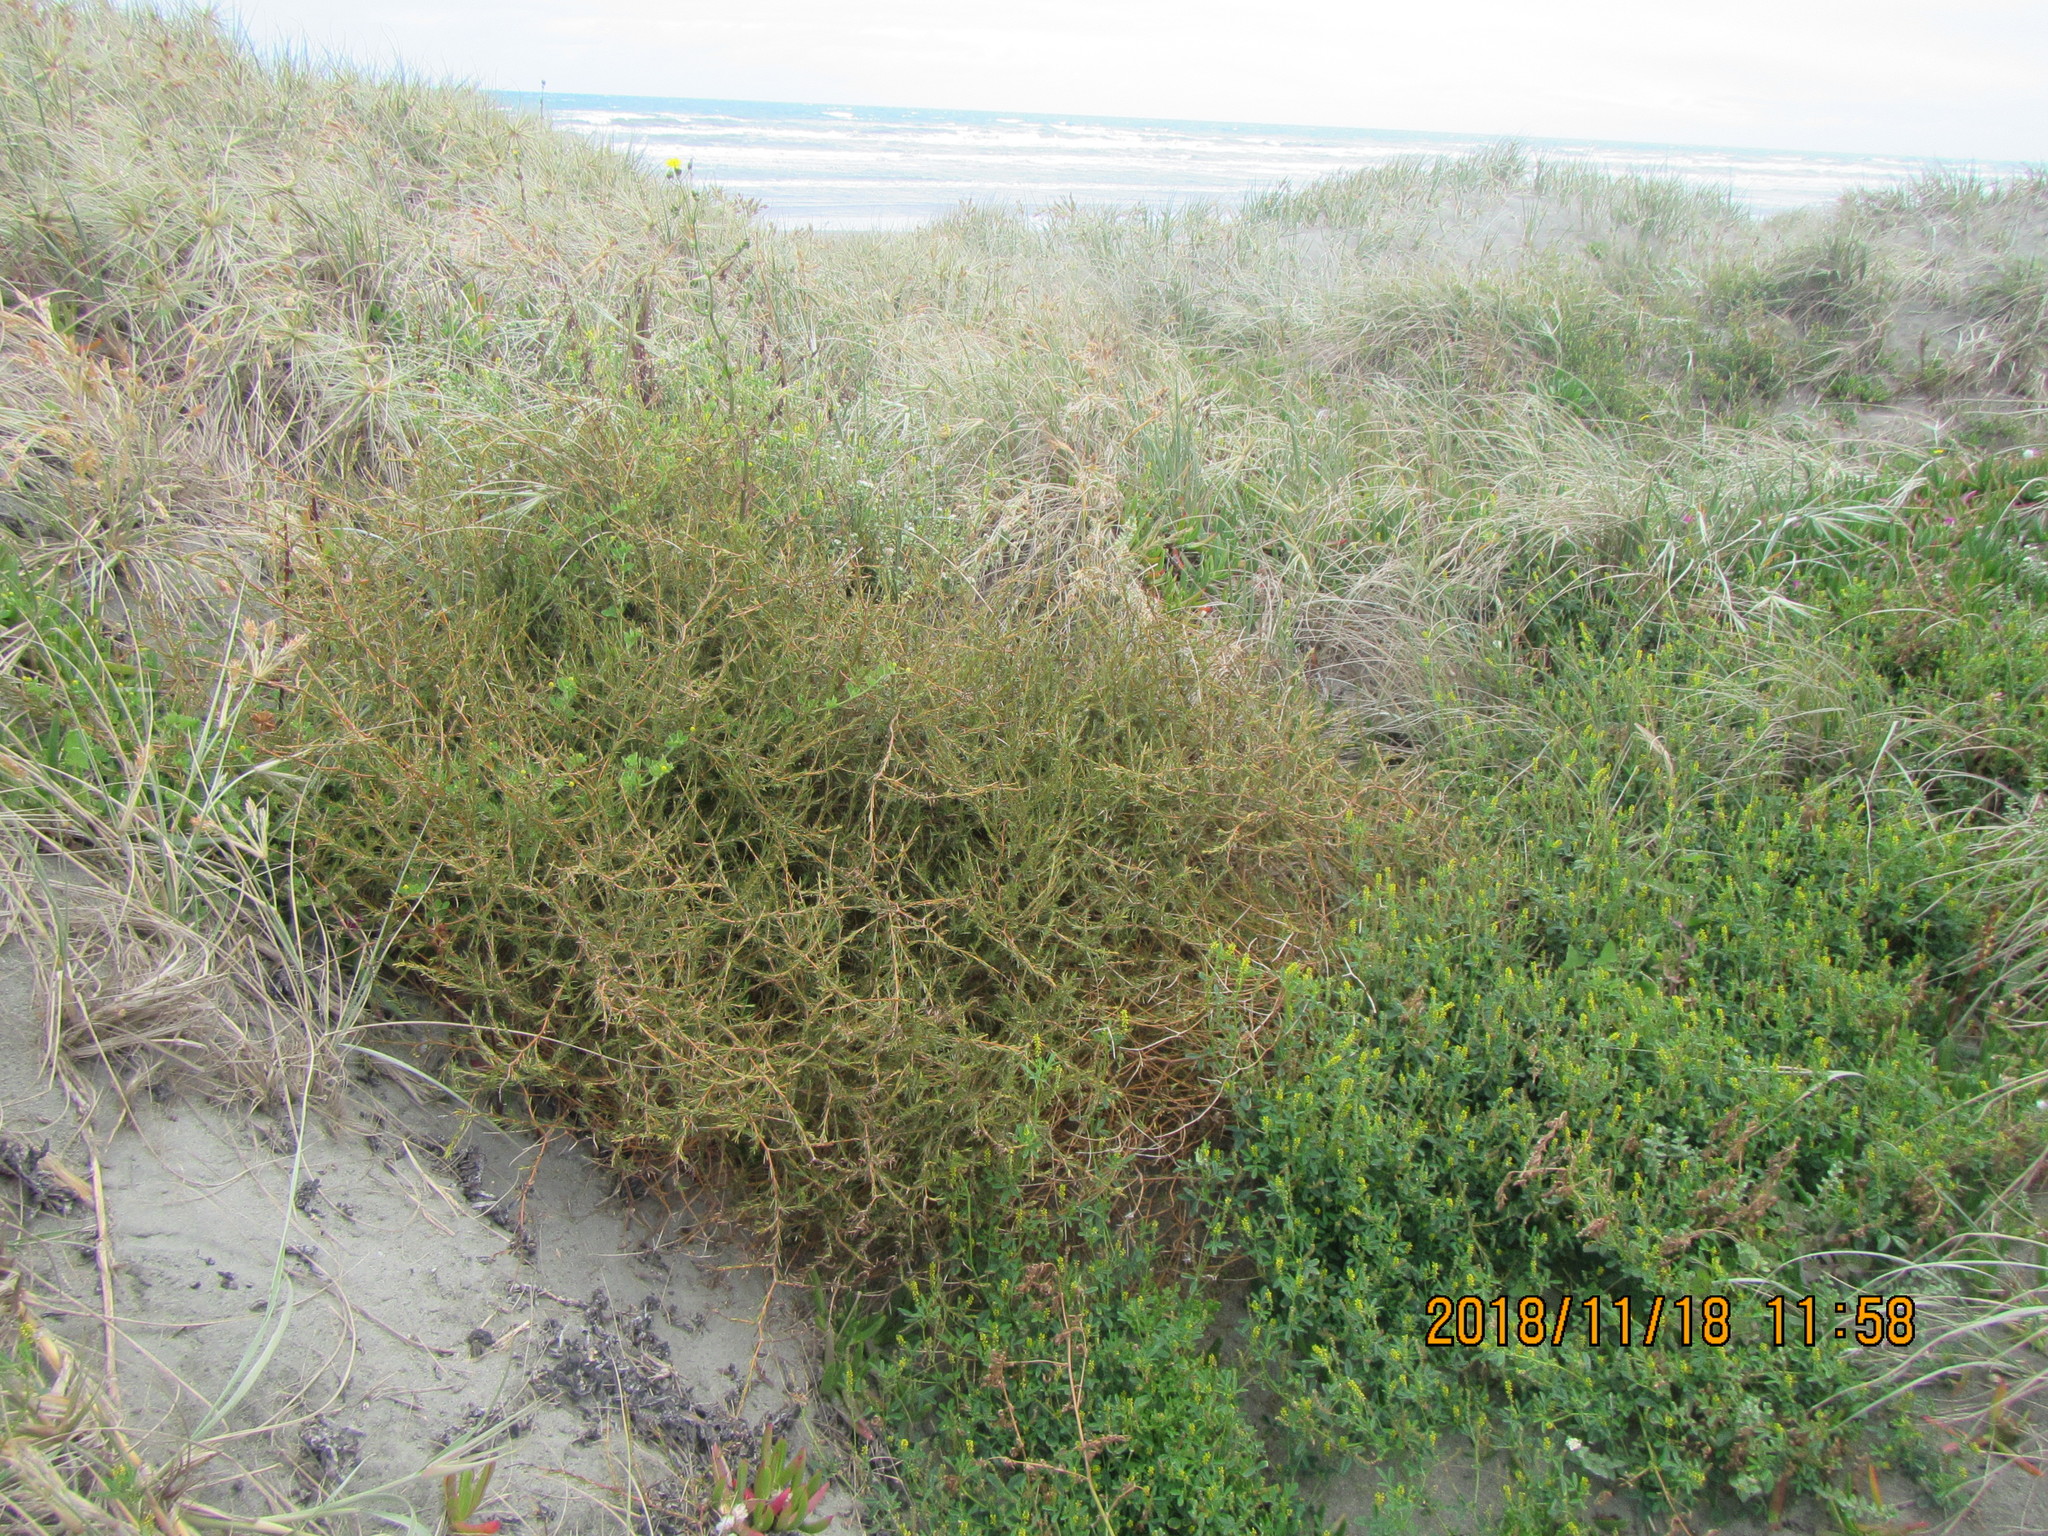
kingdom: Plantae
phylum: Tracheophyta
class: Magnoliopsida
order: Gentianales
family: Rubiaceae
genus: Coprosma
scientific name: Coprosma acerosa
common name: Sand coprosma
